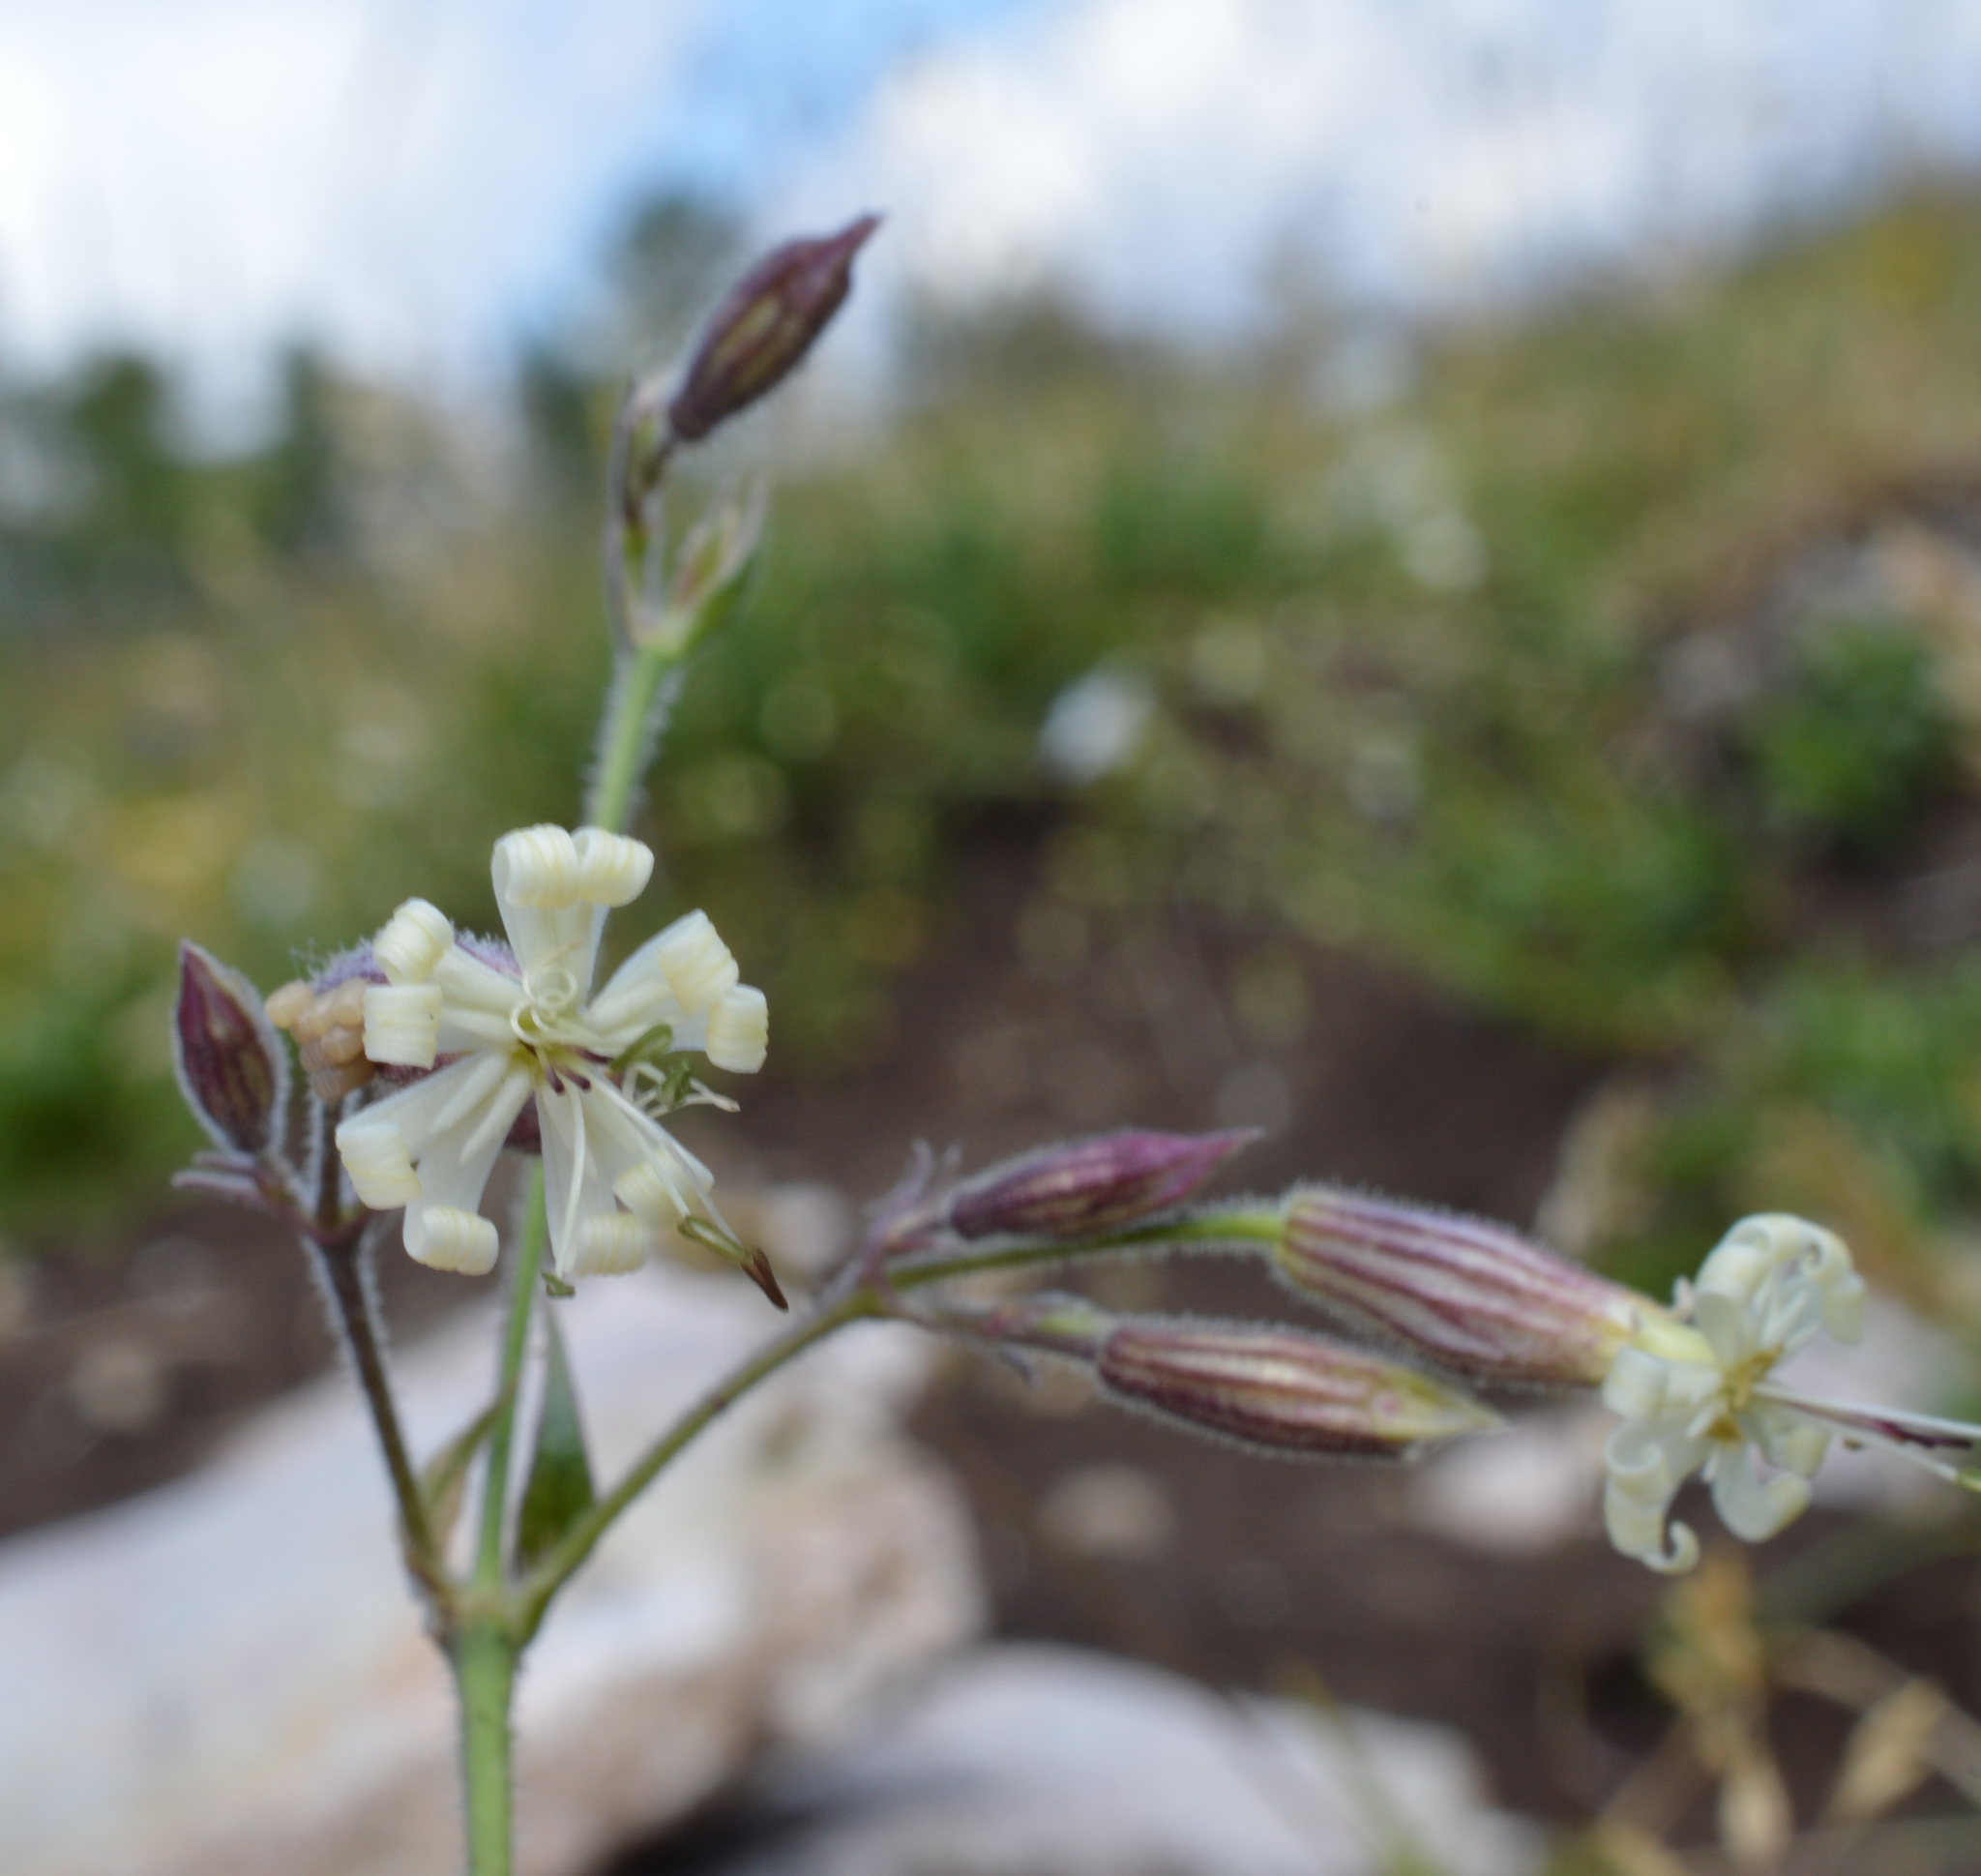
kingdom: Plantae
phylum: Tracheophyta
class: Magnoliopsida
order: Caryophyllales
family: Caryophyllaceae
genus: Silene
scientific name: Silene nutans
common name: Nottingham catchfly
